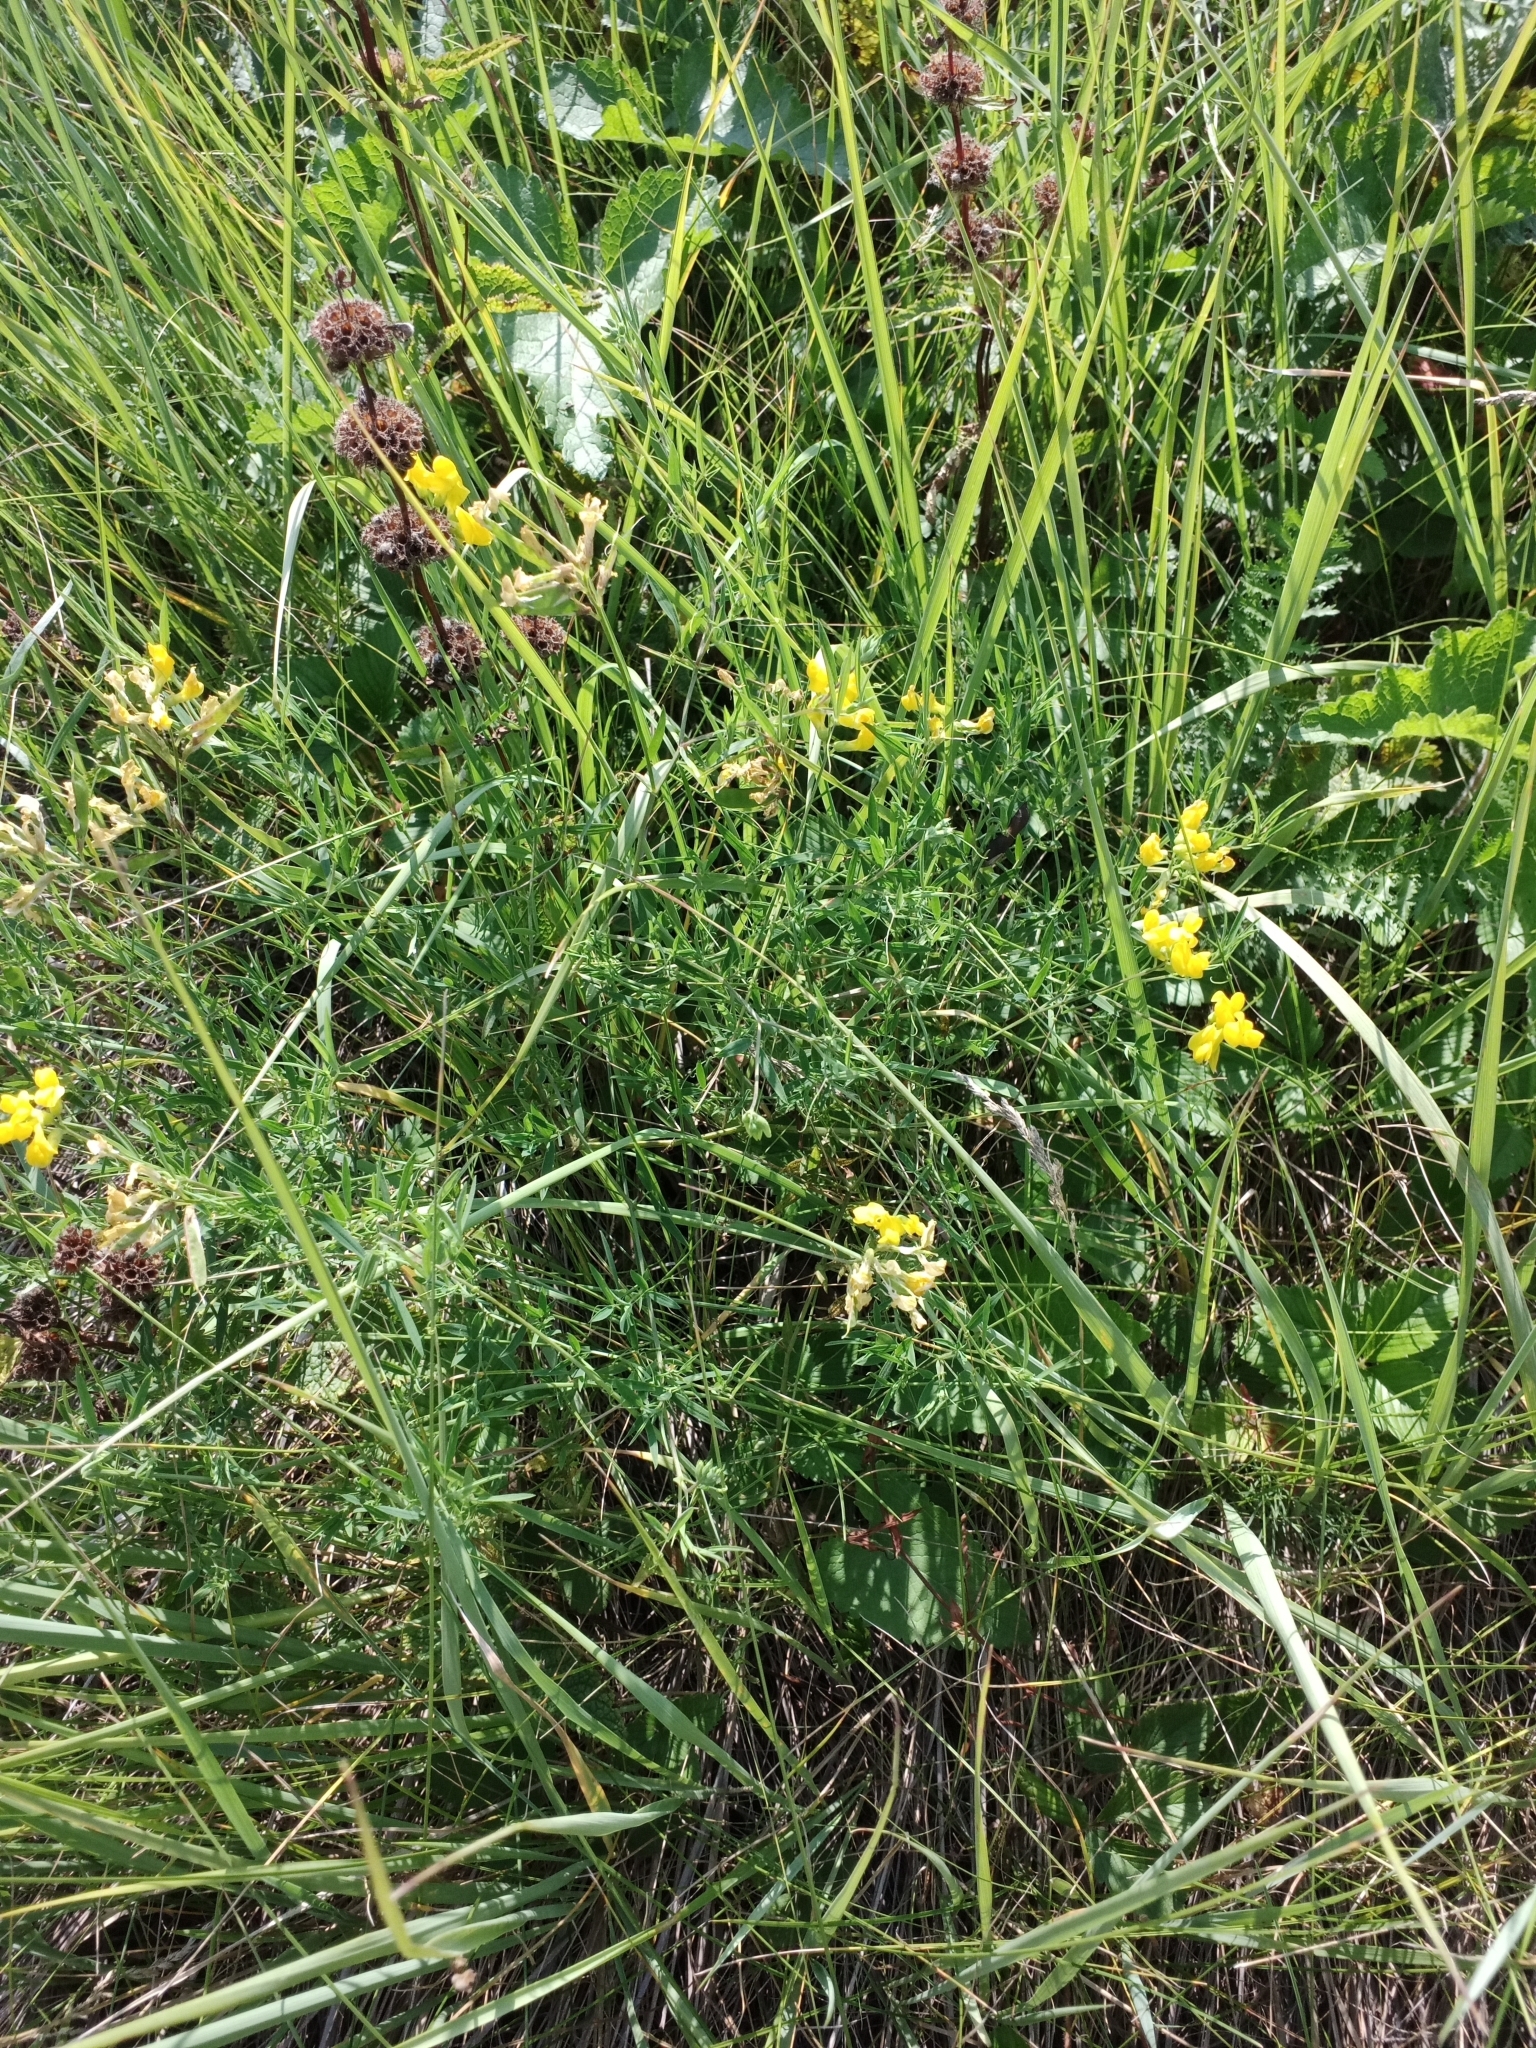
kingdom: Plantae
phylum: Tracheophyta
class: Magnoliopsida
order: Fabales
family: Fabaceae
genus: Lathyrus
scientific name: Lathyrus pratensis
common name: Meadow vetchling
